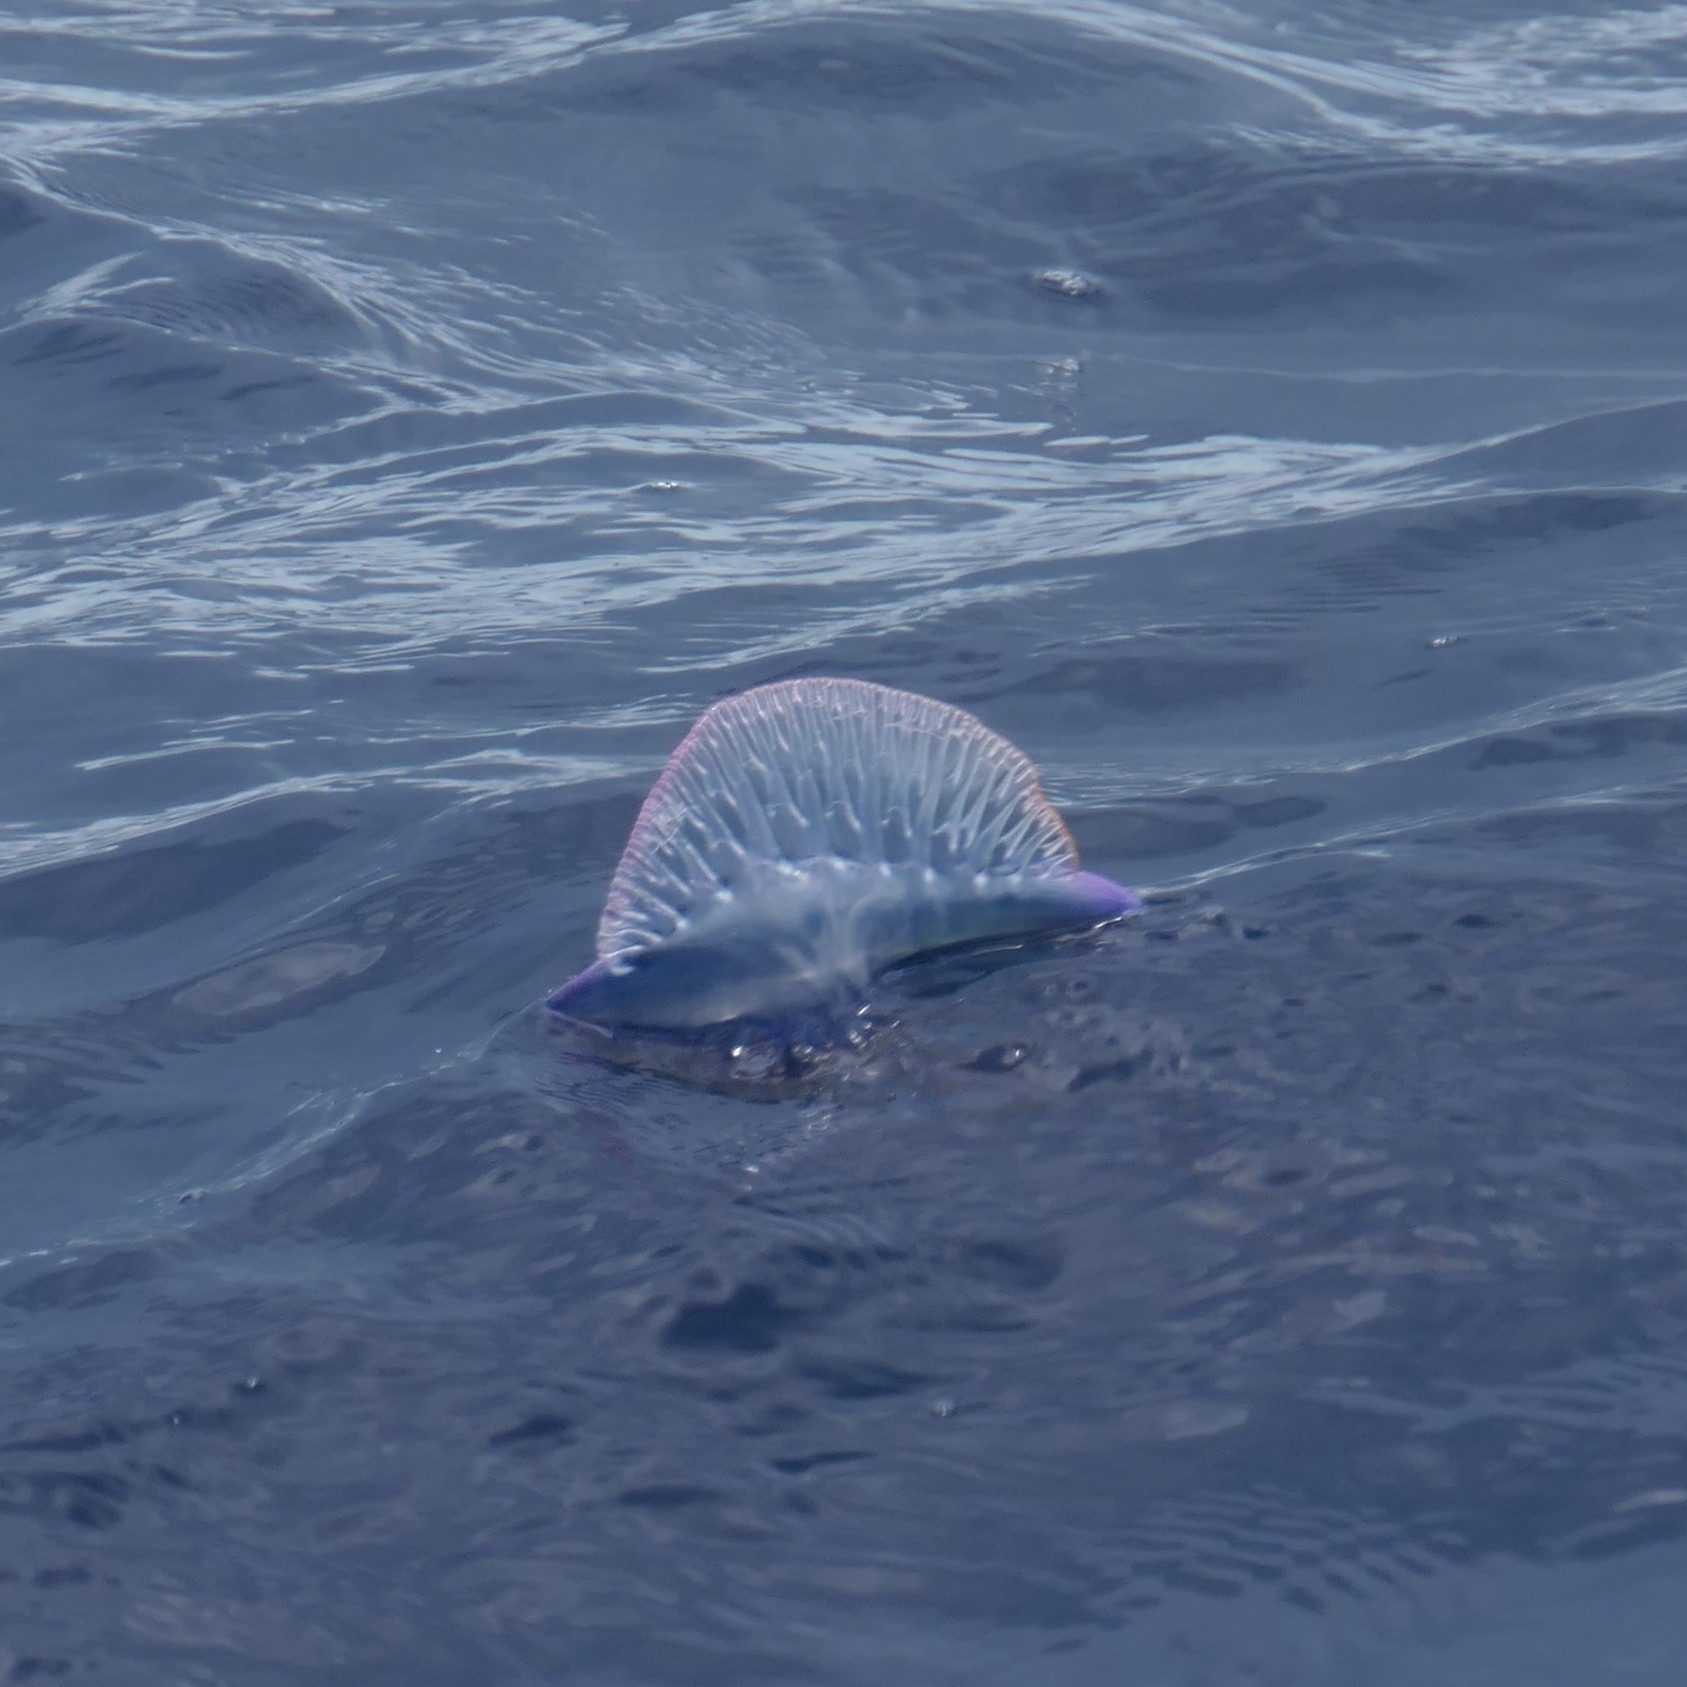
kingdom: Animalia
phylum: Cnidaria
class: Hydrozoa
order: Siphonophorae
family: Physaliidae
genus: Physalia
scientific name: Physalia physalis
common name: Portuguese man-of-war
